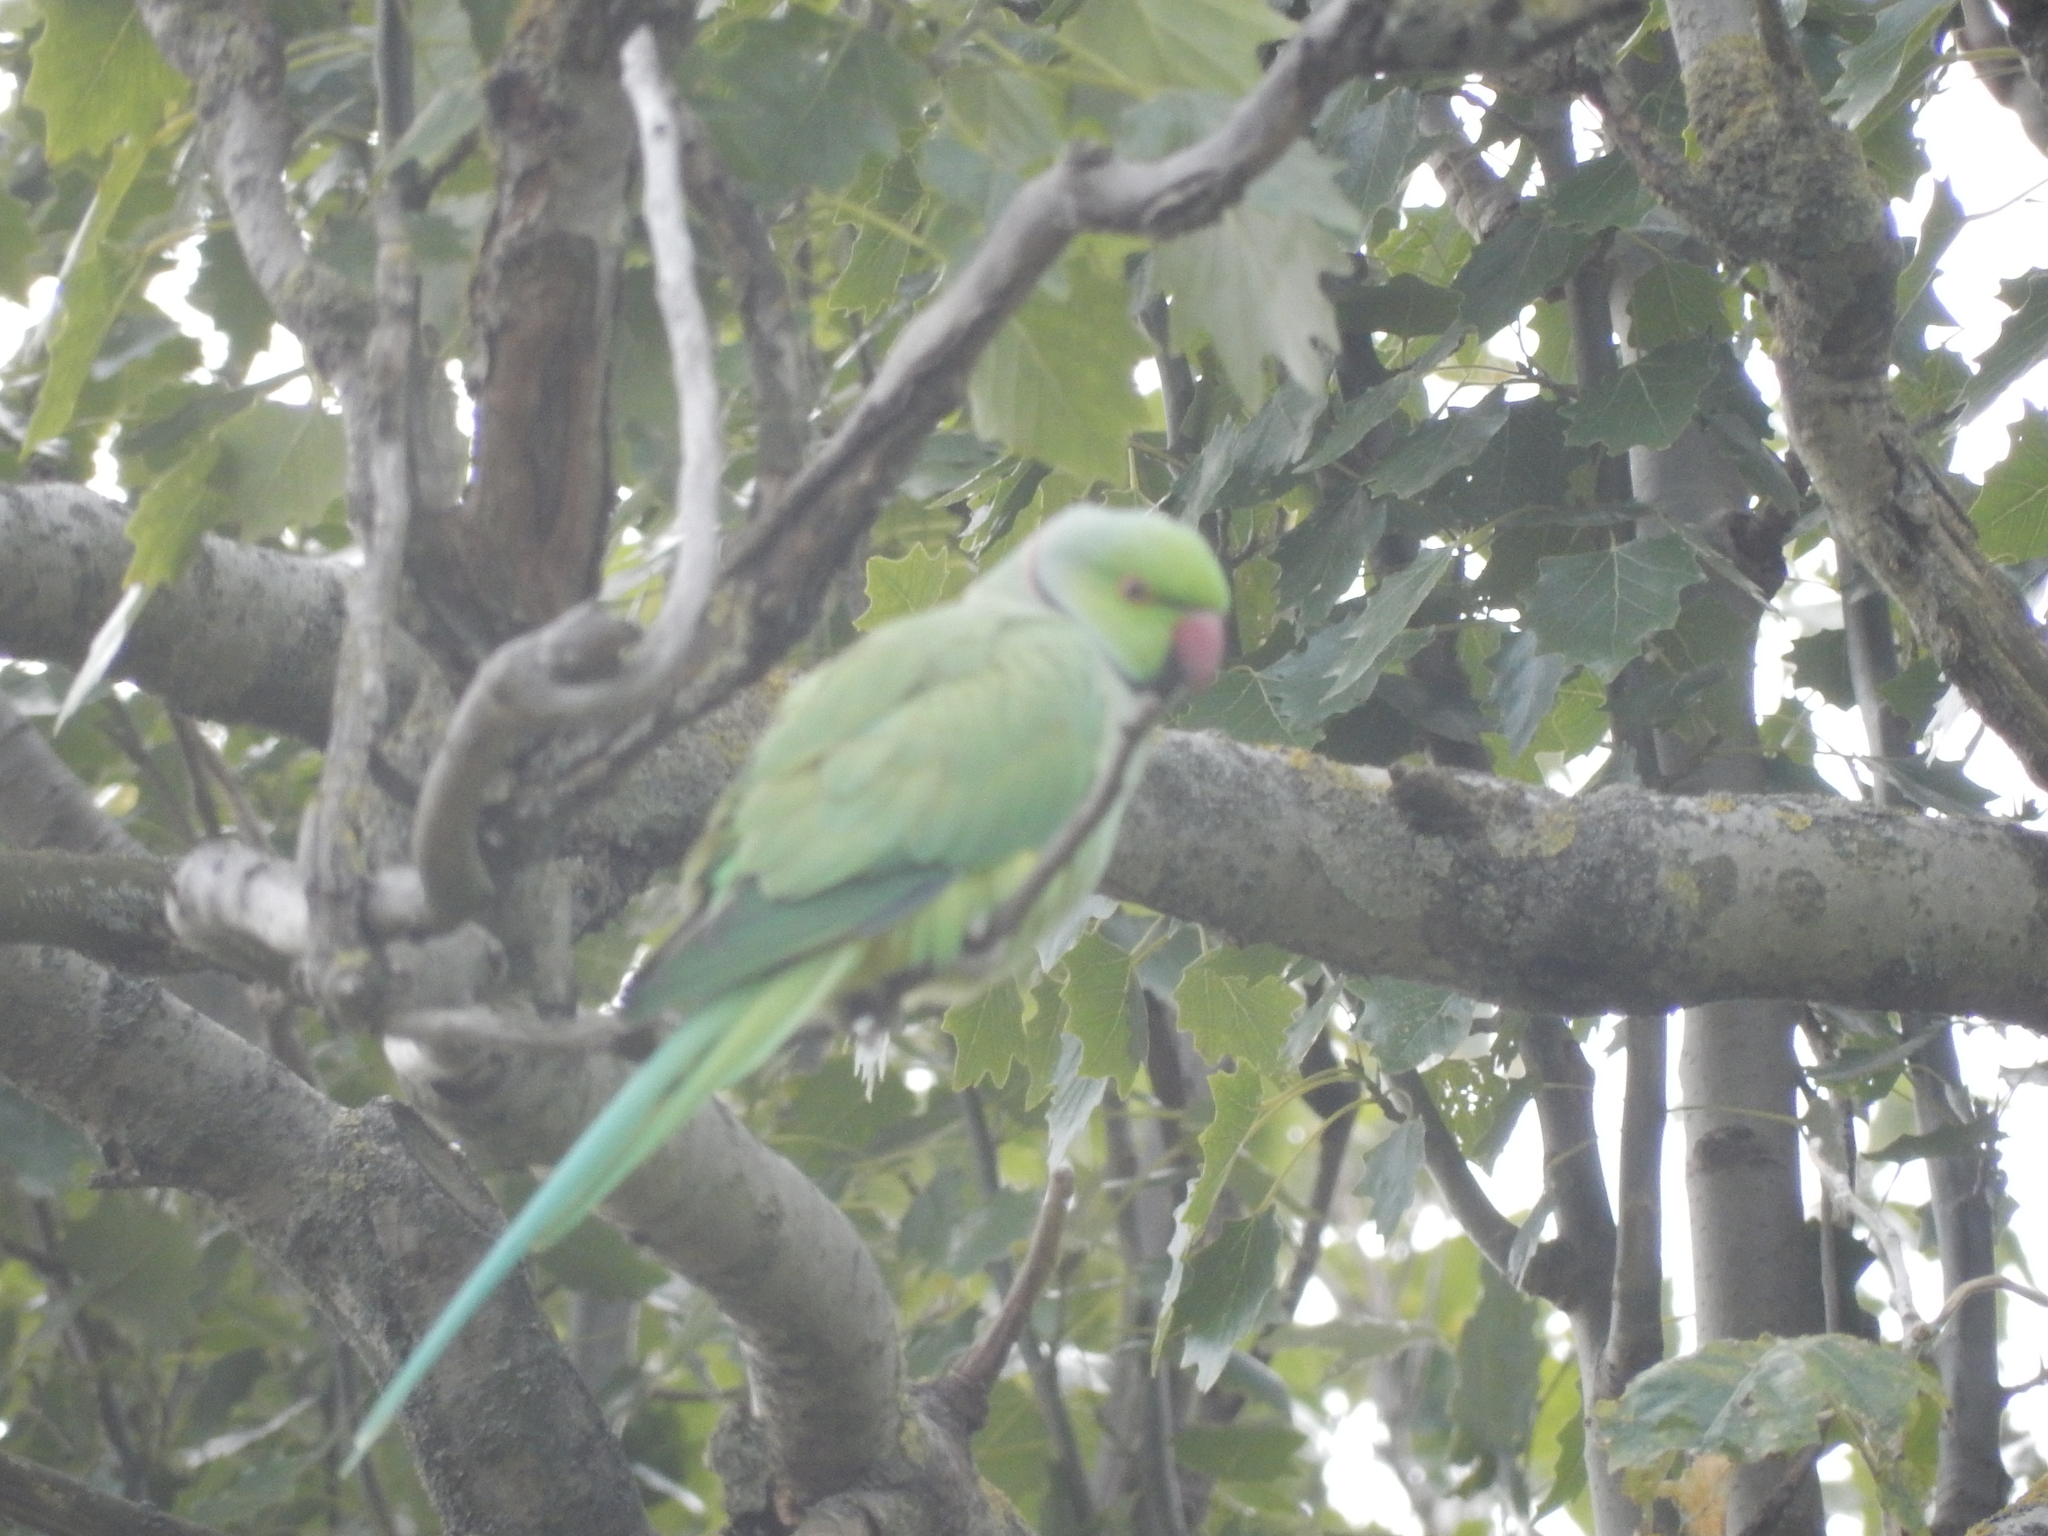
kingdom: Animalia
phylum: Chordata
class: Aves
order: Psittaciformes
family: Psittacidae
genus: Psittacula
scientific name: Psittacula krameri
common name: Rose-ringed parakeet
